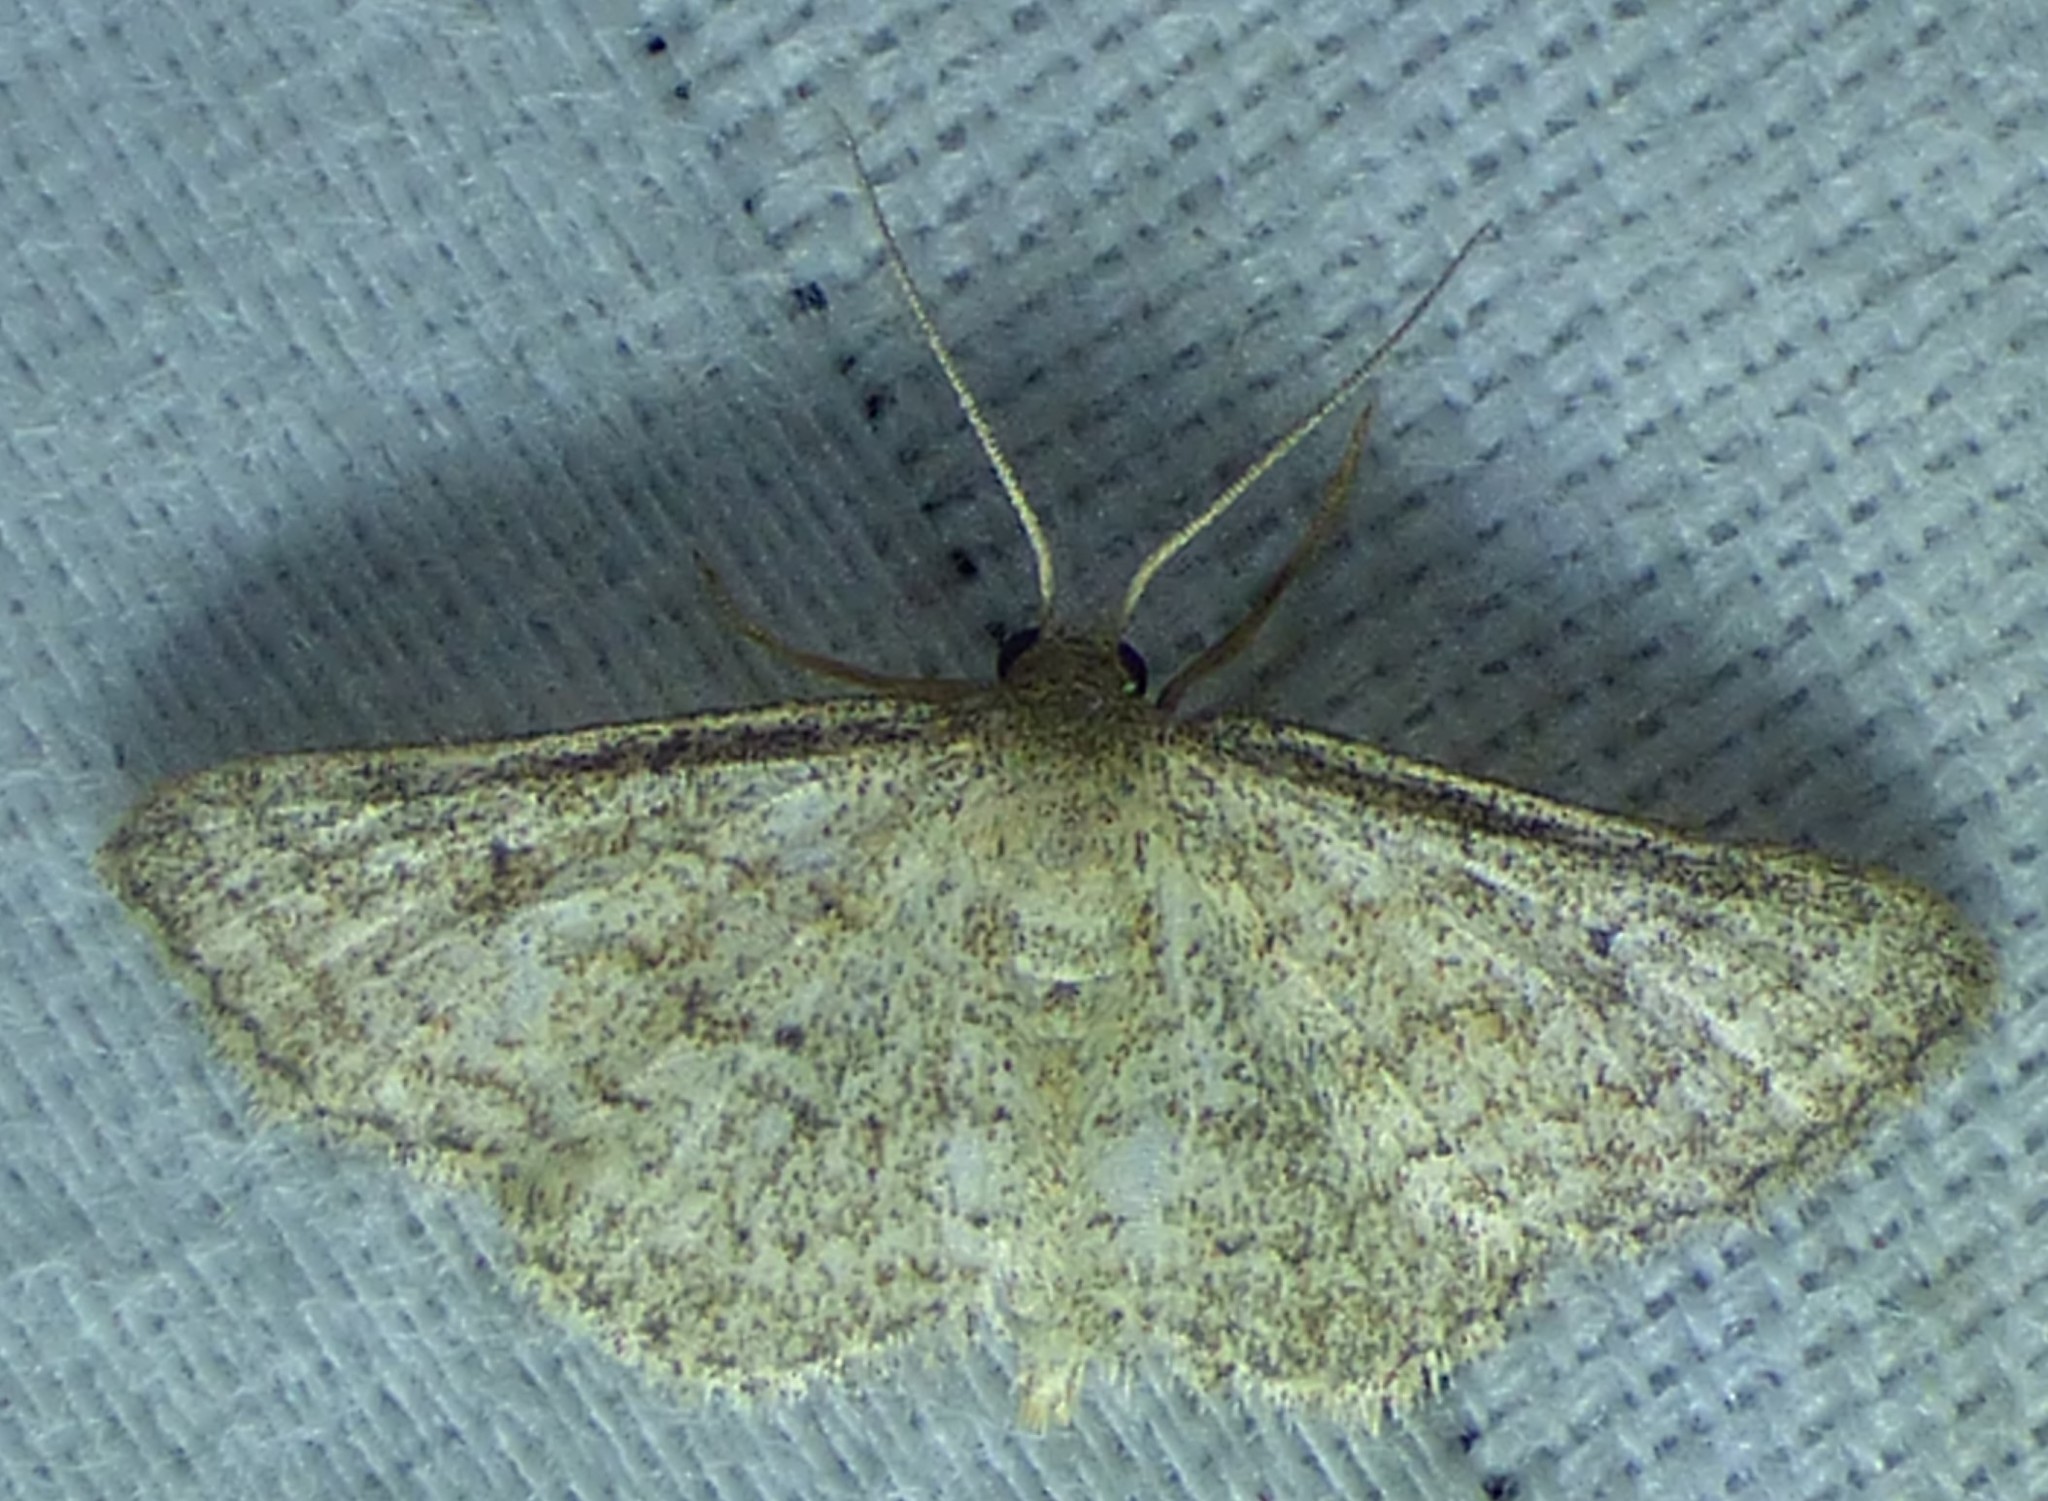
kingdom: Animalia
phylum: Arthropoda
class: Insecta
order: Lepidoptera
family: Geometridae
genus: Lobocleta
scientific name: Lobocleta ossularia
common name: Drab brown wave
